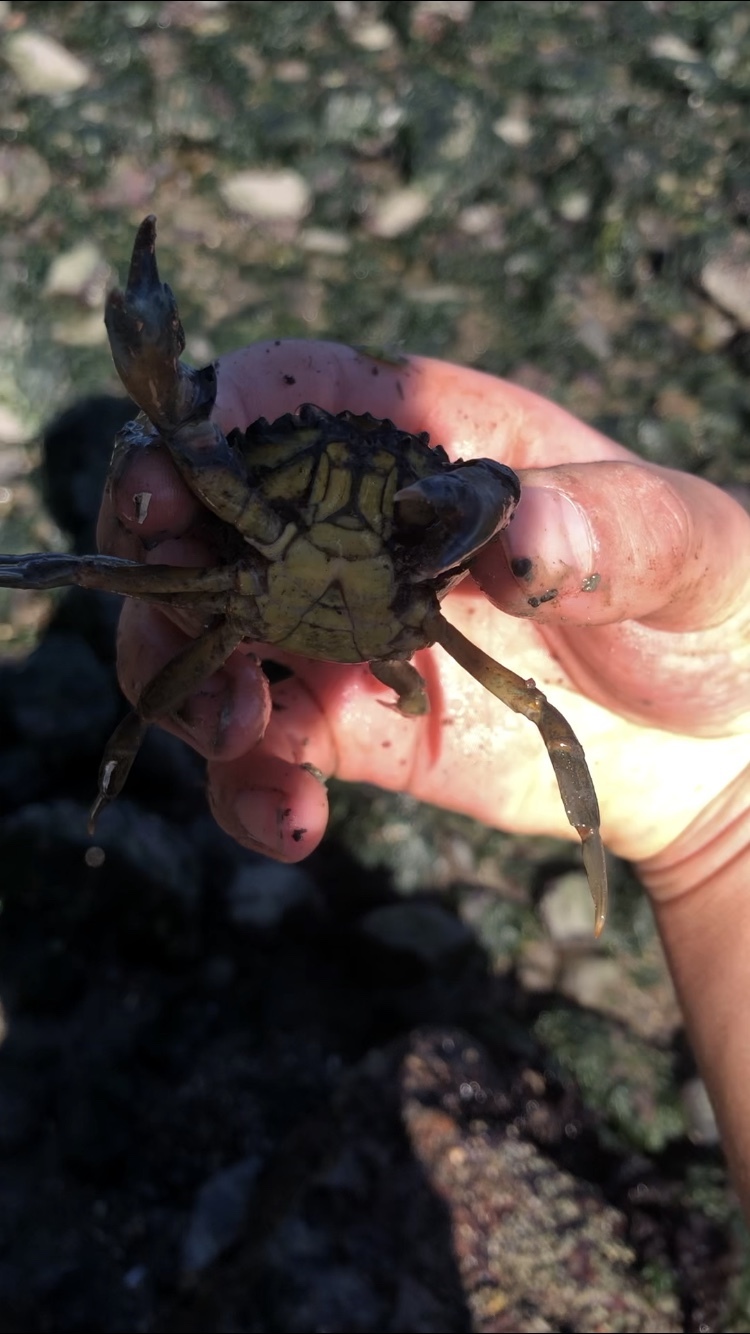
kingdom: Animalia
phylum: Arthropoda
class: Malacostraca
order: Decapoda
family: Carcinidae
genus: Carcinus
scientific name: Carcinus maenas
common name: European green crab
